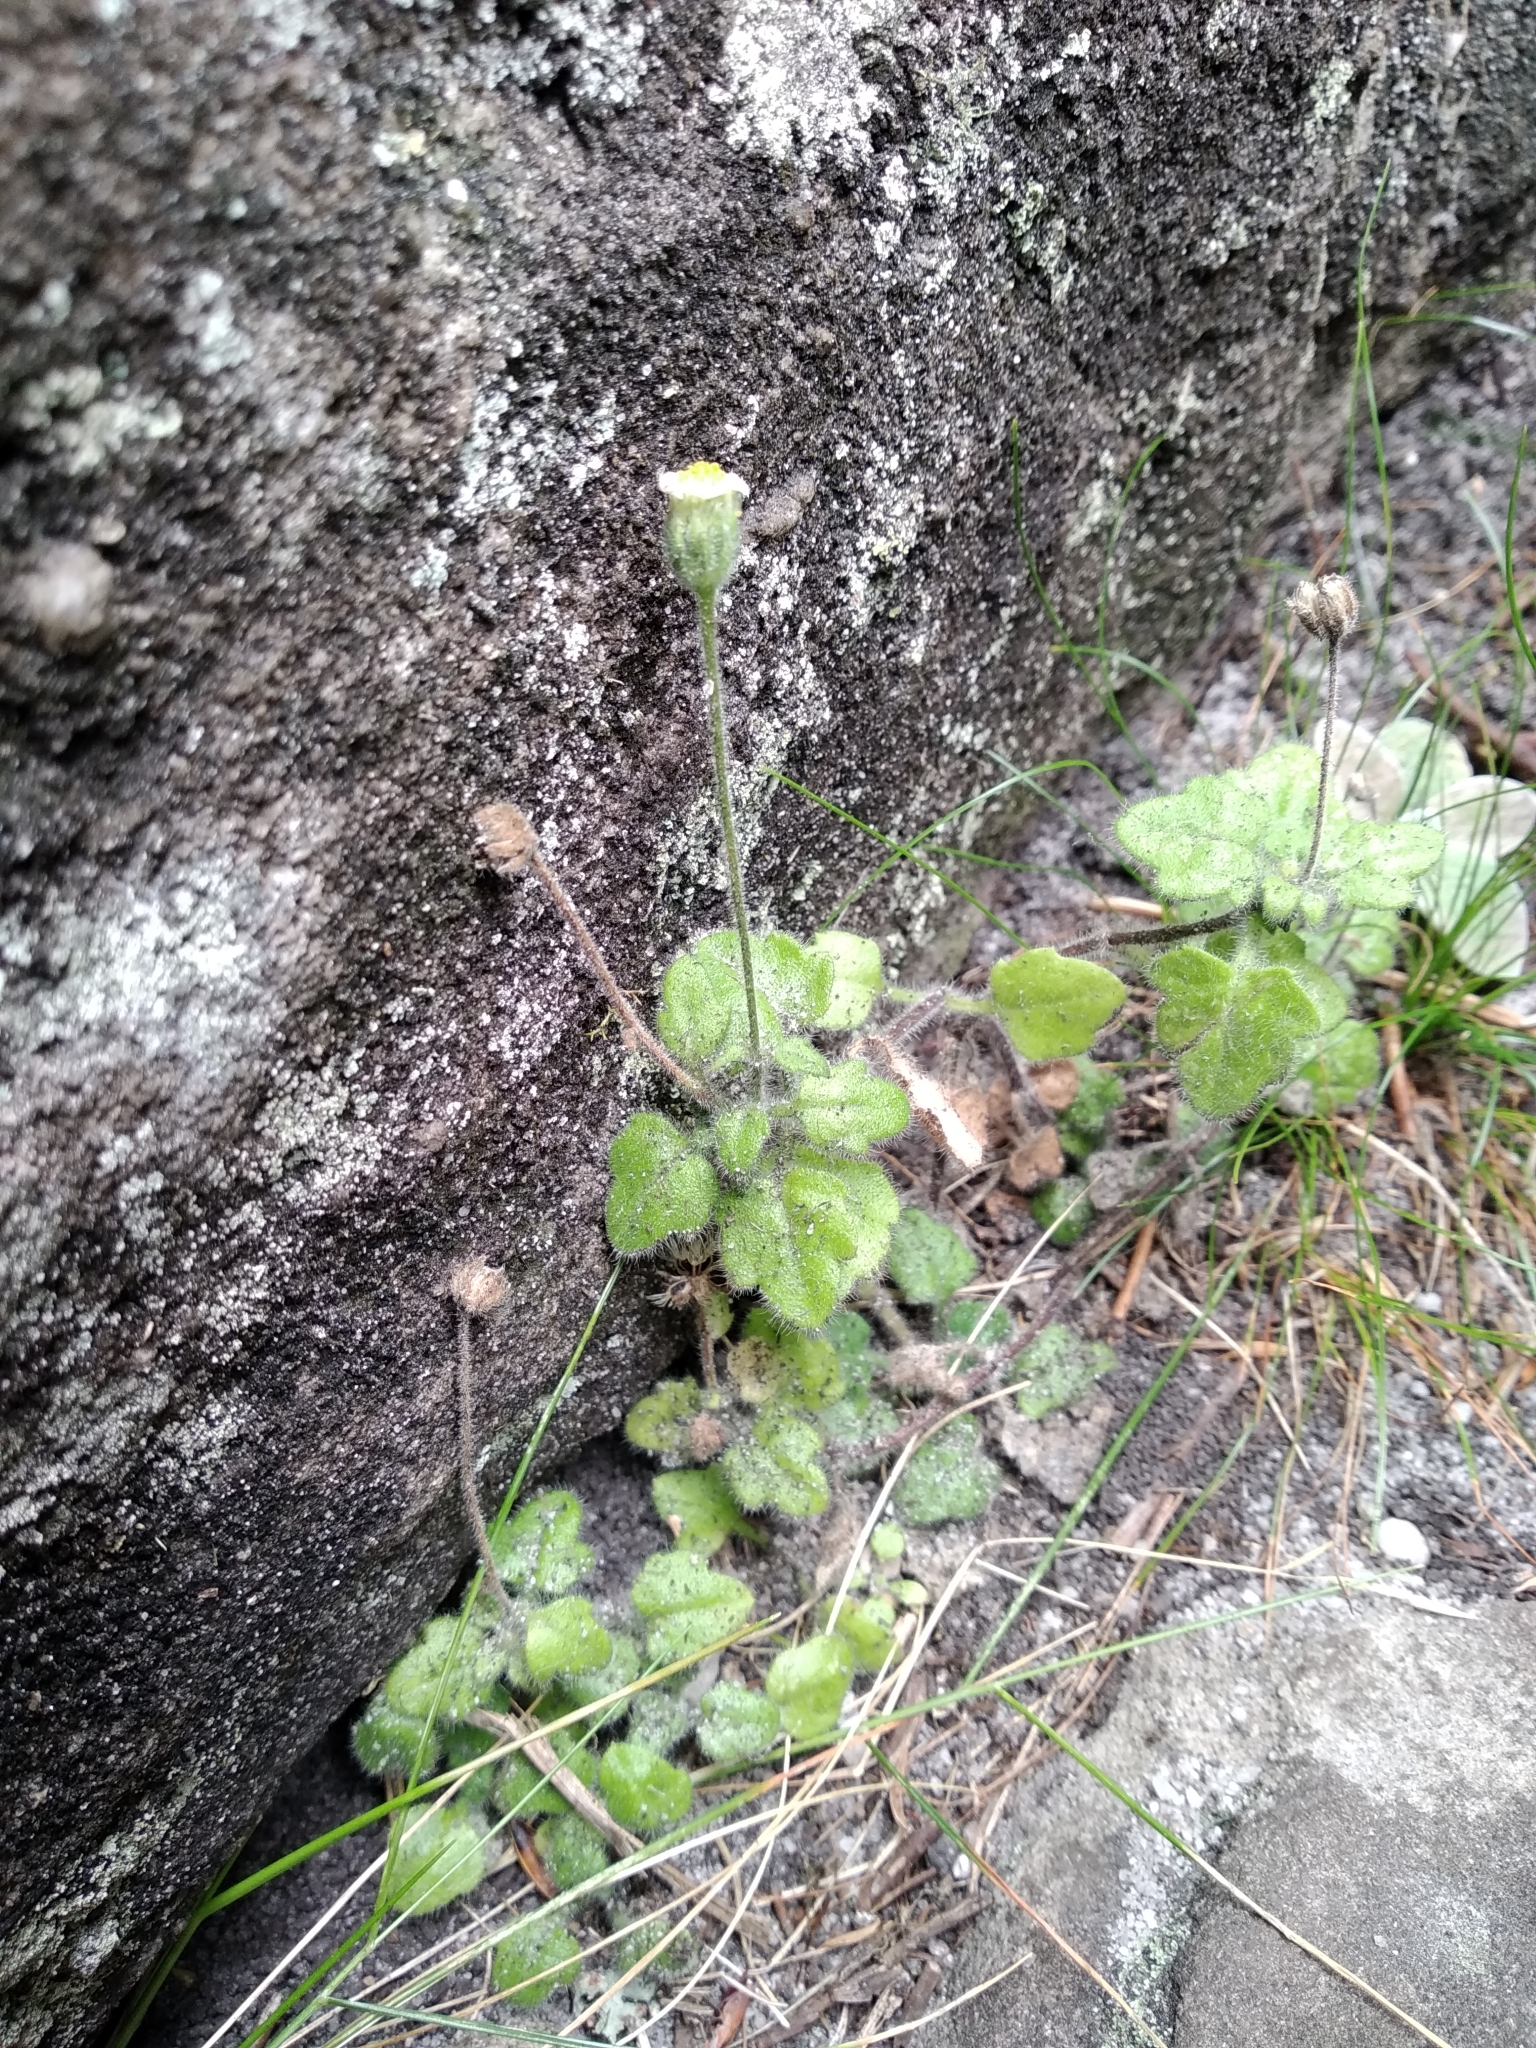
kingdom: Plantae
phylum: Tracheophyta
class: Magnoliopsida
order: Asterales
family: Asteraceae
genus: Felicia
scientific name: Felicia cymbalariae
